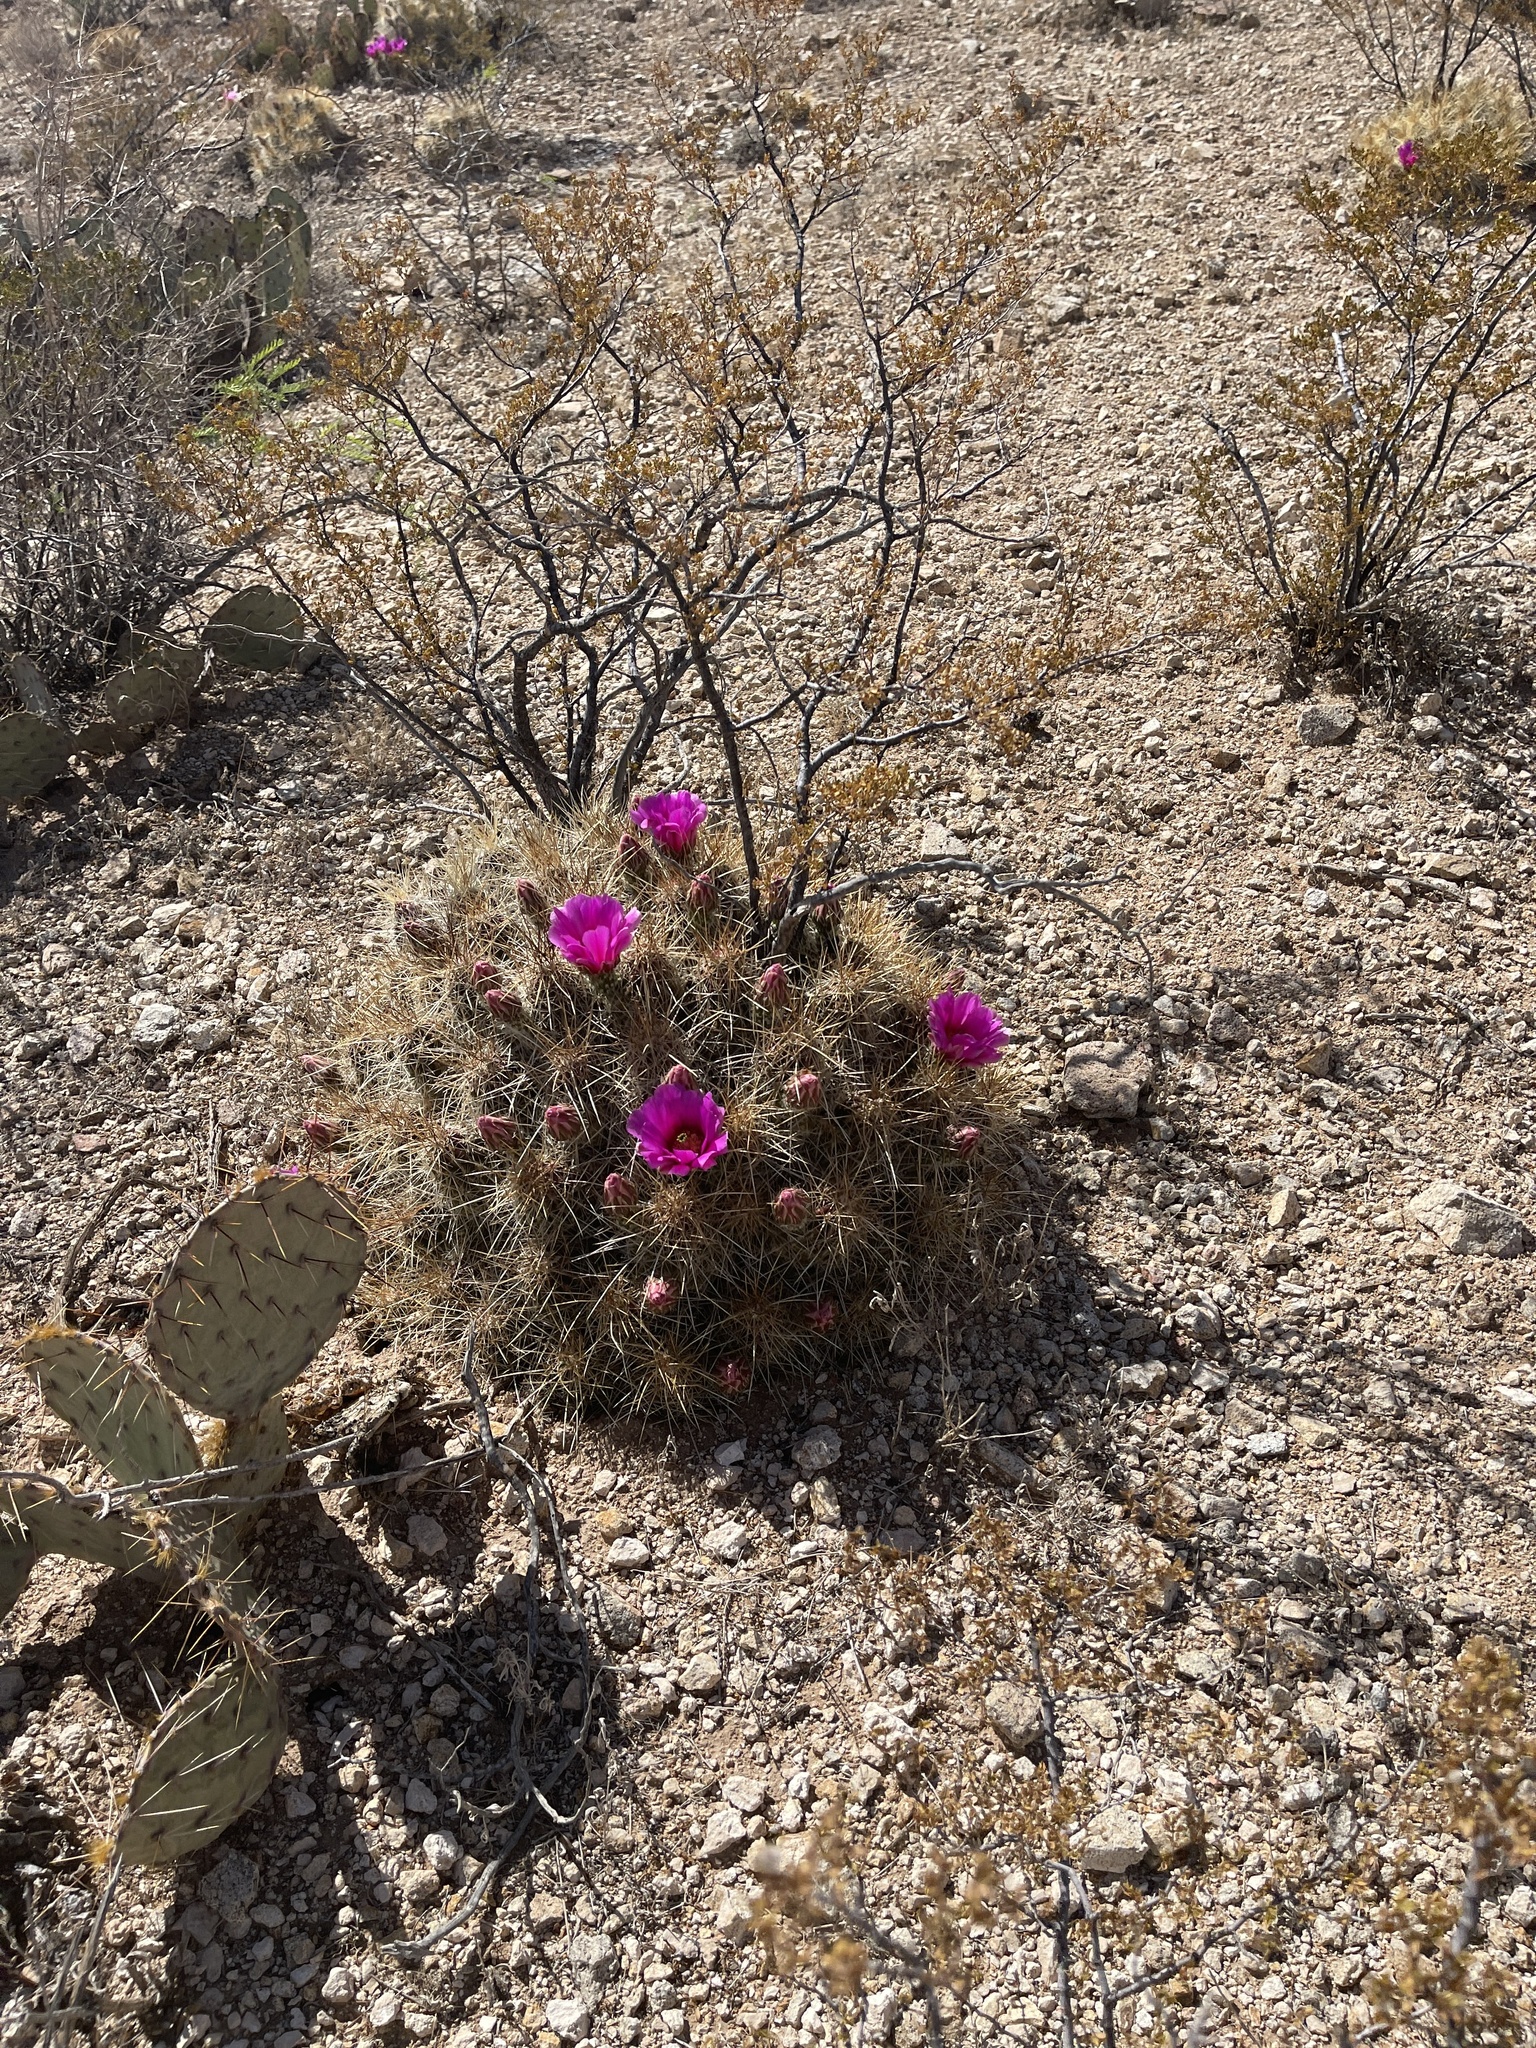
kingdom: Plantae
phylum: Tracheophyta
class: Magnoliopsida
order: Caryophyllales
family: Cactaceae
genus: Echinocereus
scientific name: Echinocereus stramineus
